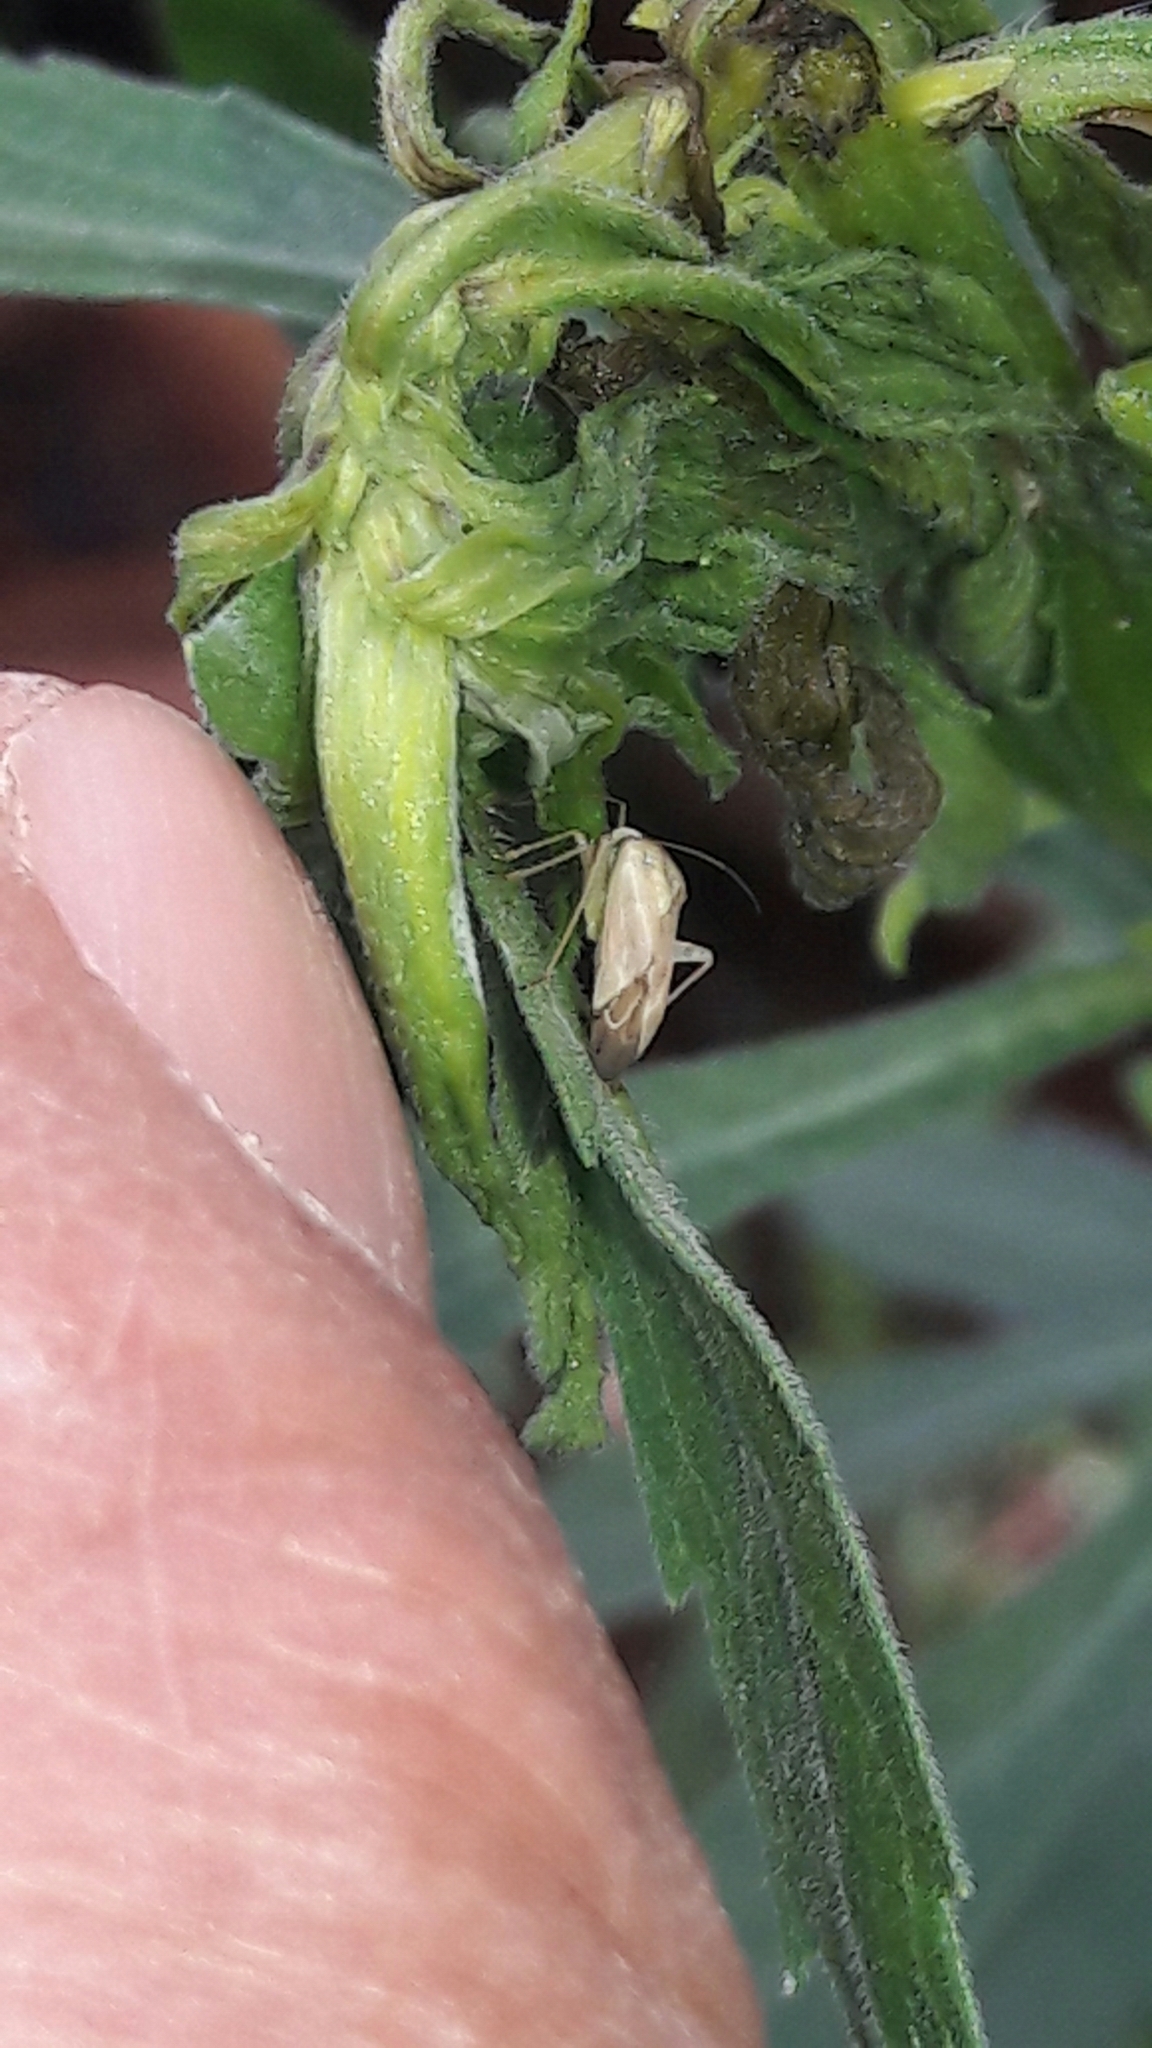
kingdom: Animalia
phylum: Arthropoda
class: Insecta
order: Hemiptera
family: Miridae
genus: Taylorilygus
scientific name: Taylorilygus apicalis
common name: Plant bug
